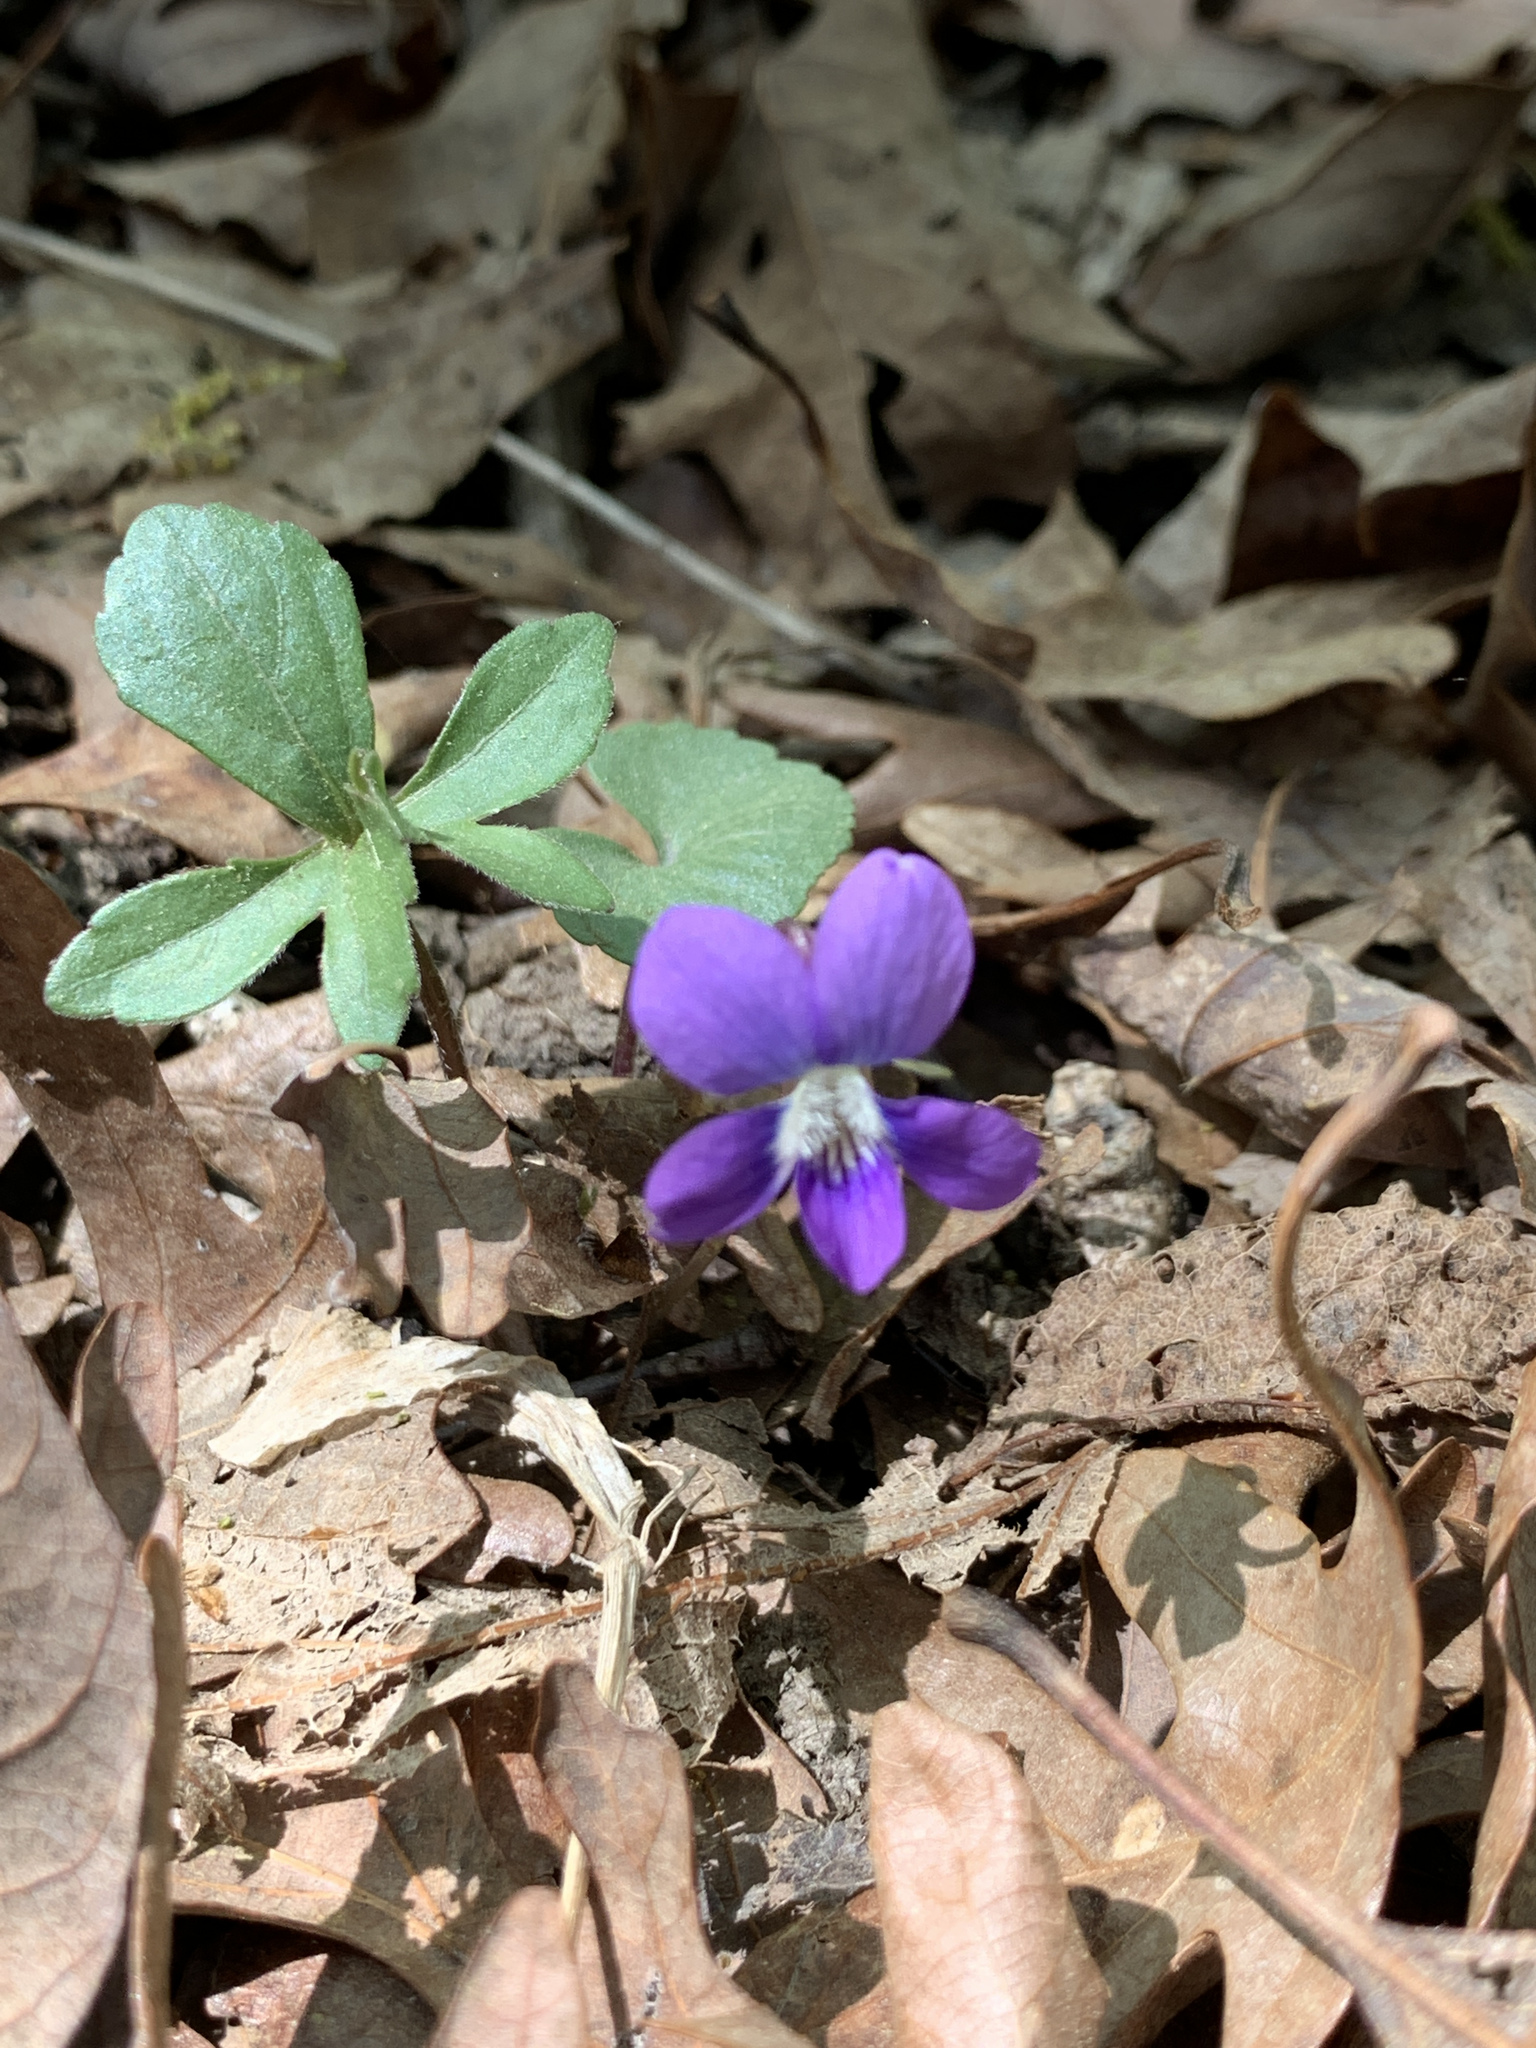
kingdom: Plantae
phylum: Tracheophyta
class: Magnoliopsida
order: Malpighiales
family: Violaceae
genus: Viola
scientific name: Viola palmata
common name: Early blue violet
